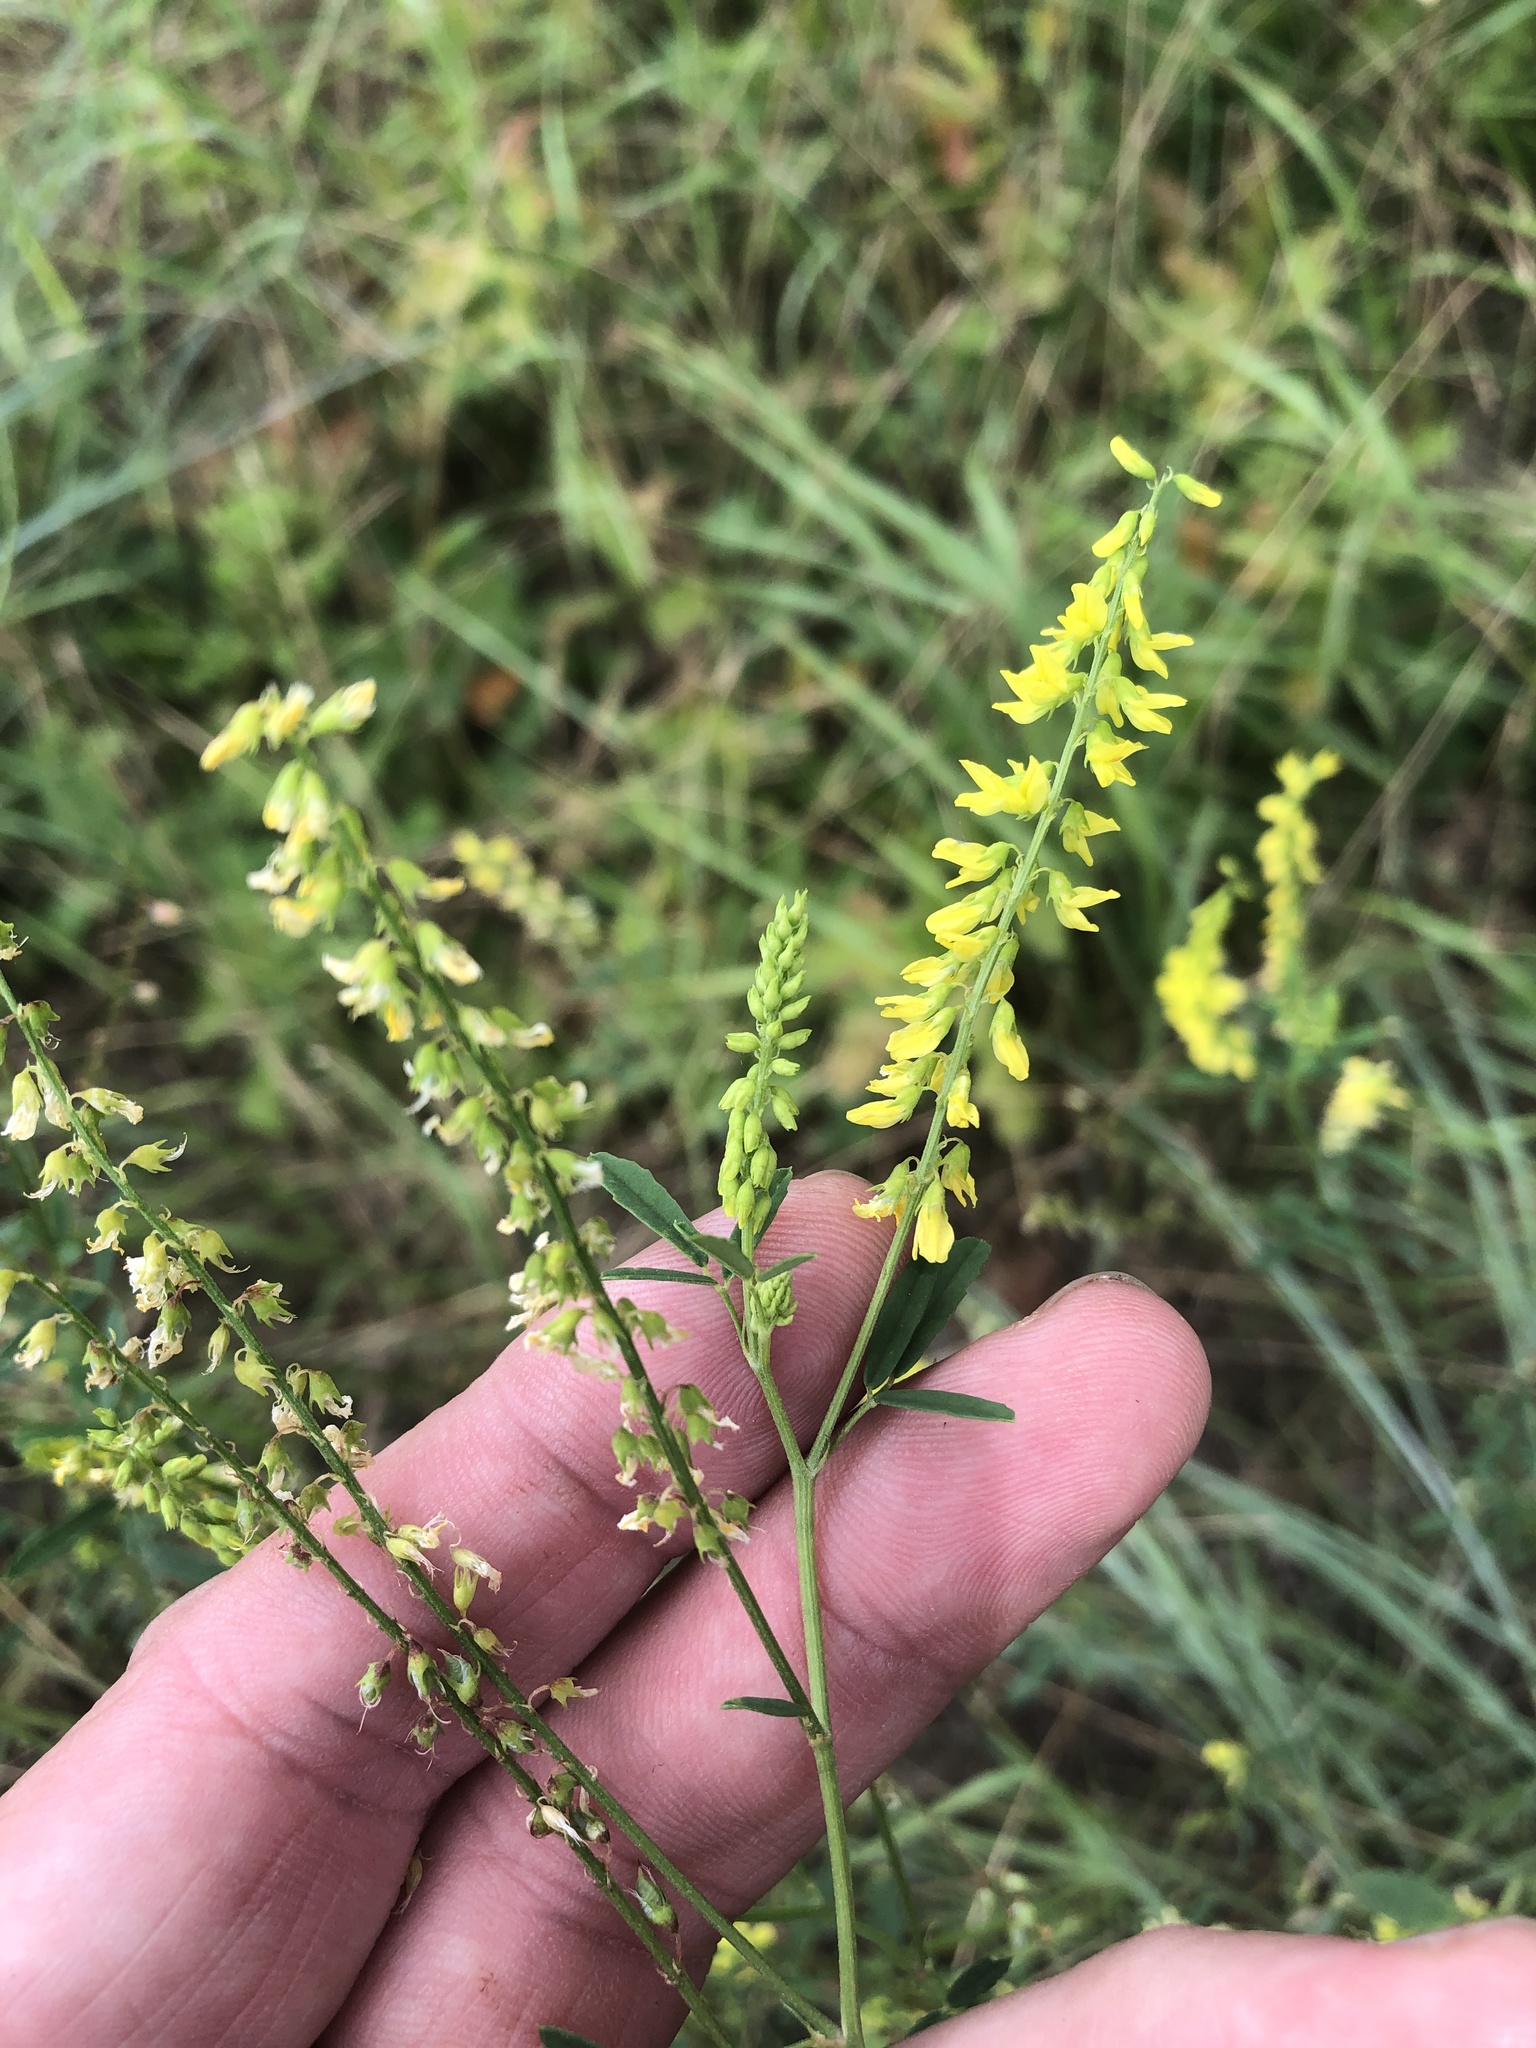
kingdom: Plantae
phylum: Tracheophyta
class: Magnoliopsida
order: Fabales
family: Fabaceae
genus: Melilotus
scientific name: Melilotus officinalis
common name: Sweetclover
